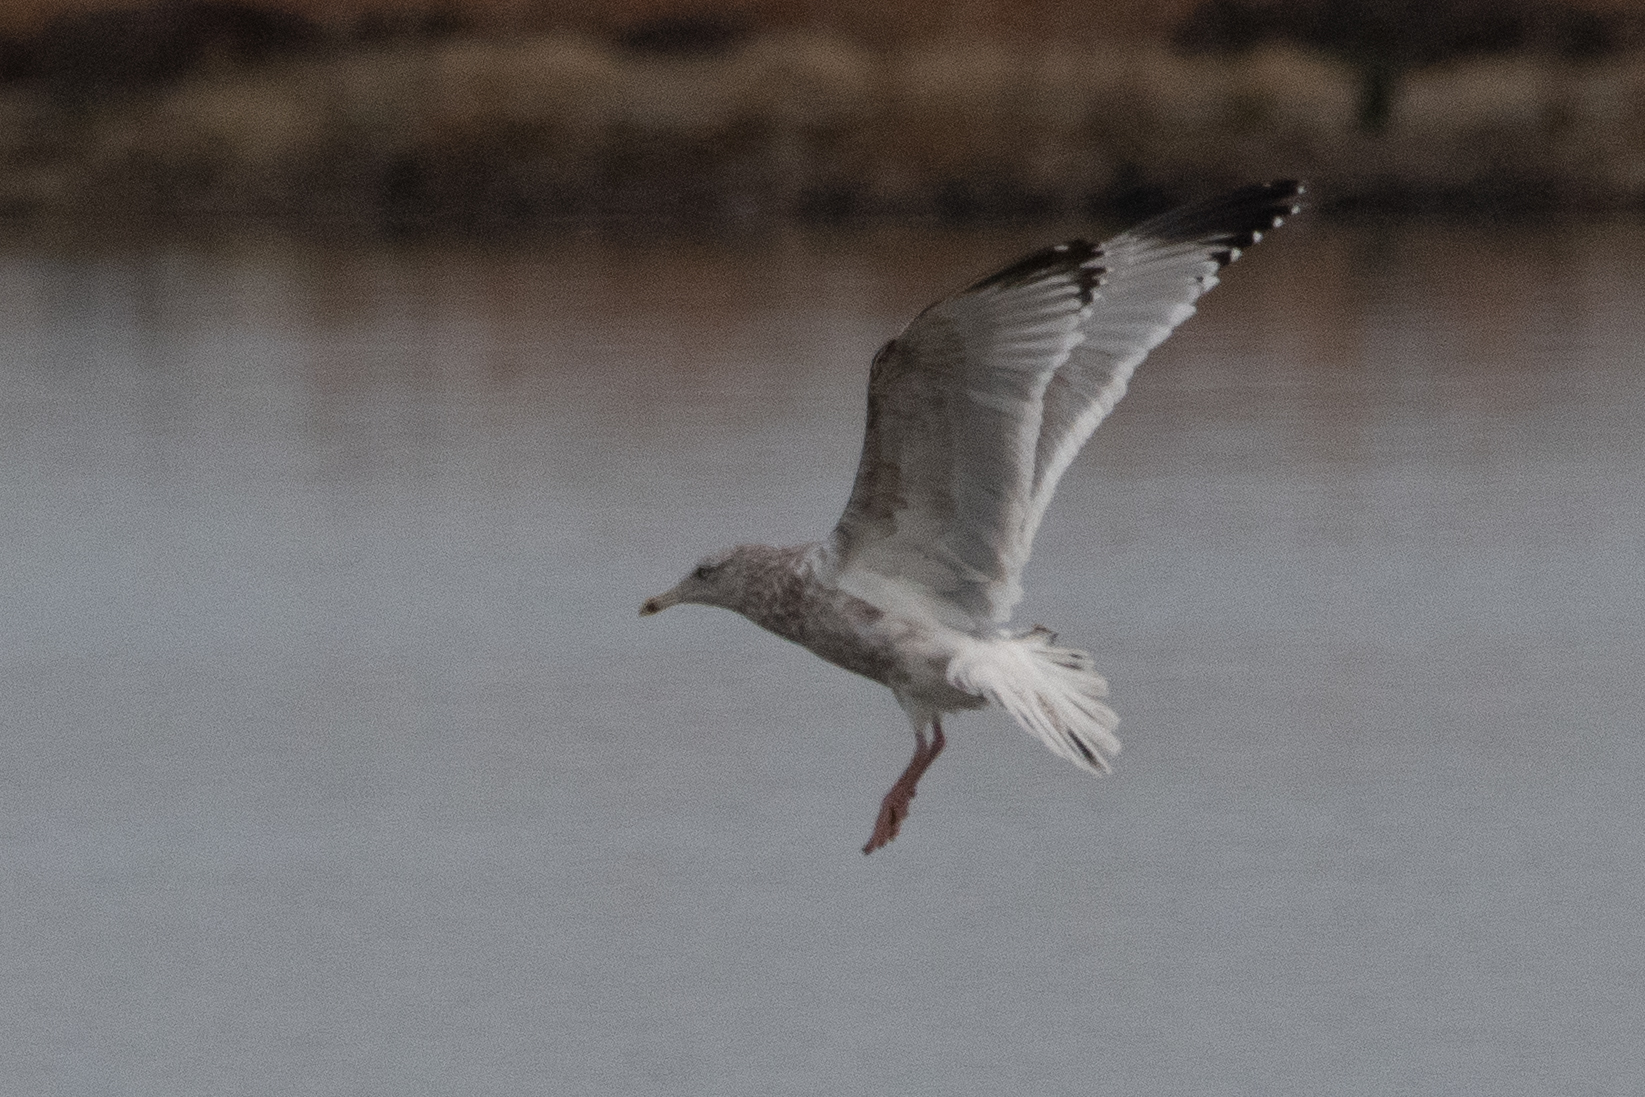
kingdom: Animalia
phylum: Chordata
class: Aves
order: Charadriiformes
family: Laridae
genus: Larus
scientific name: Larus argentatus
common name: Herring gull
